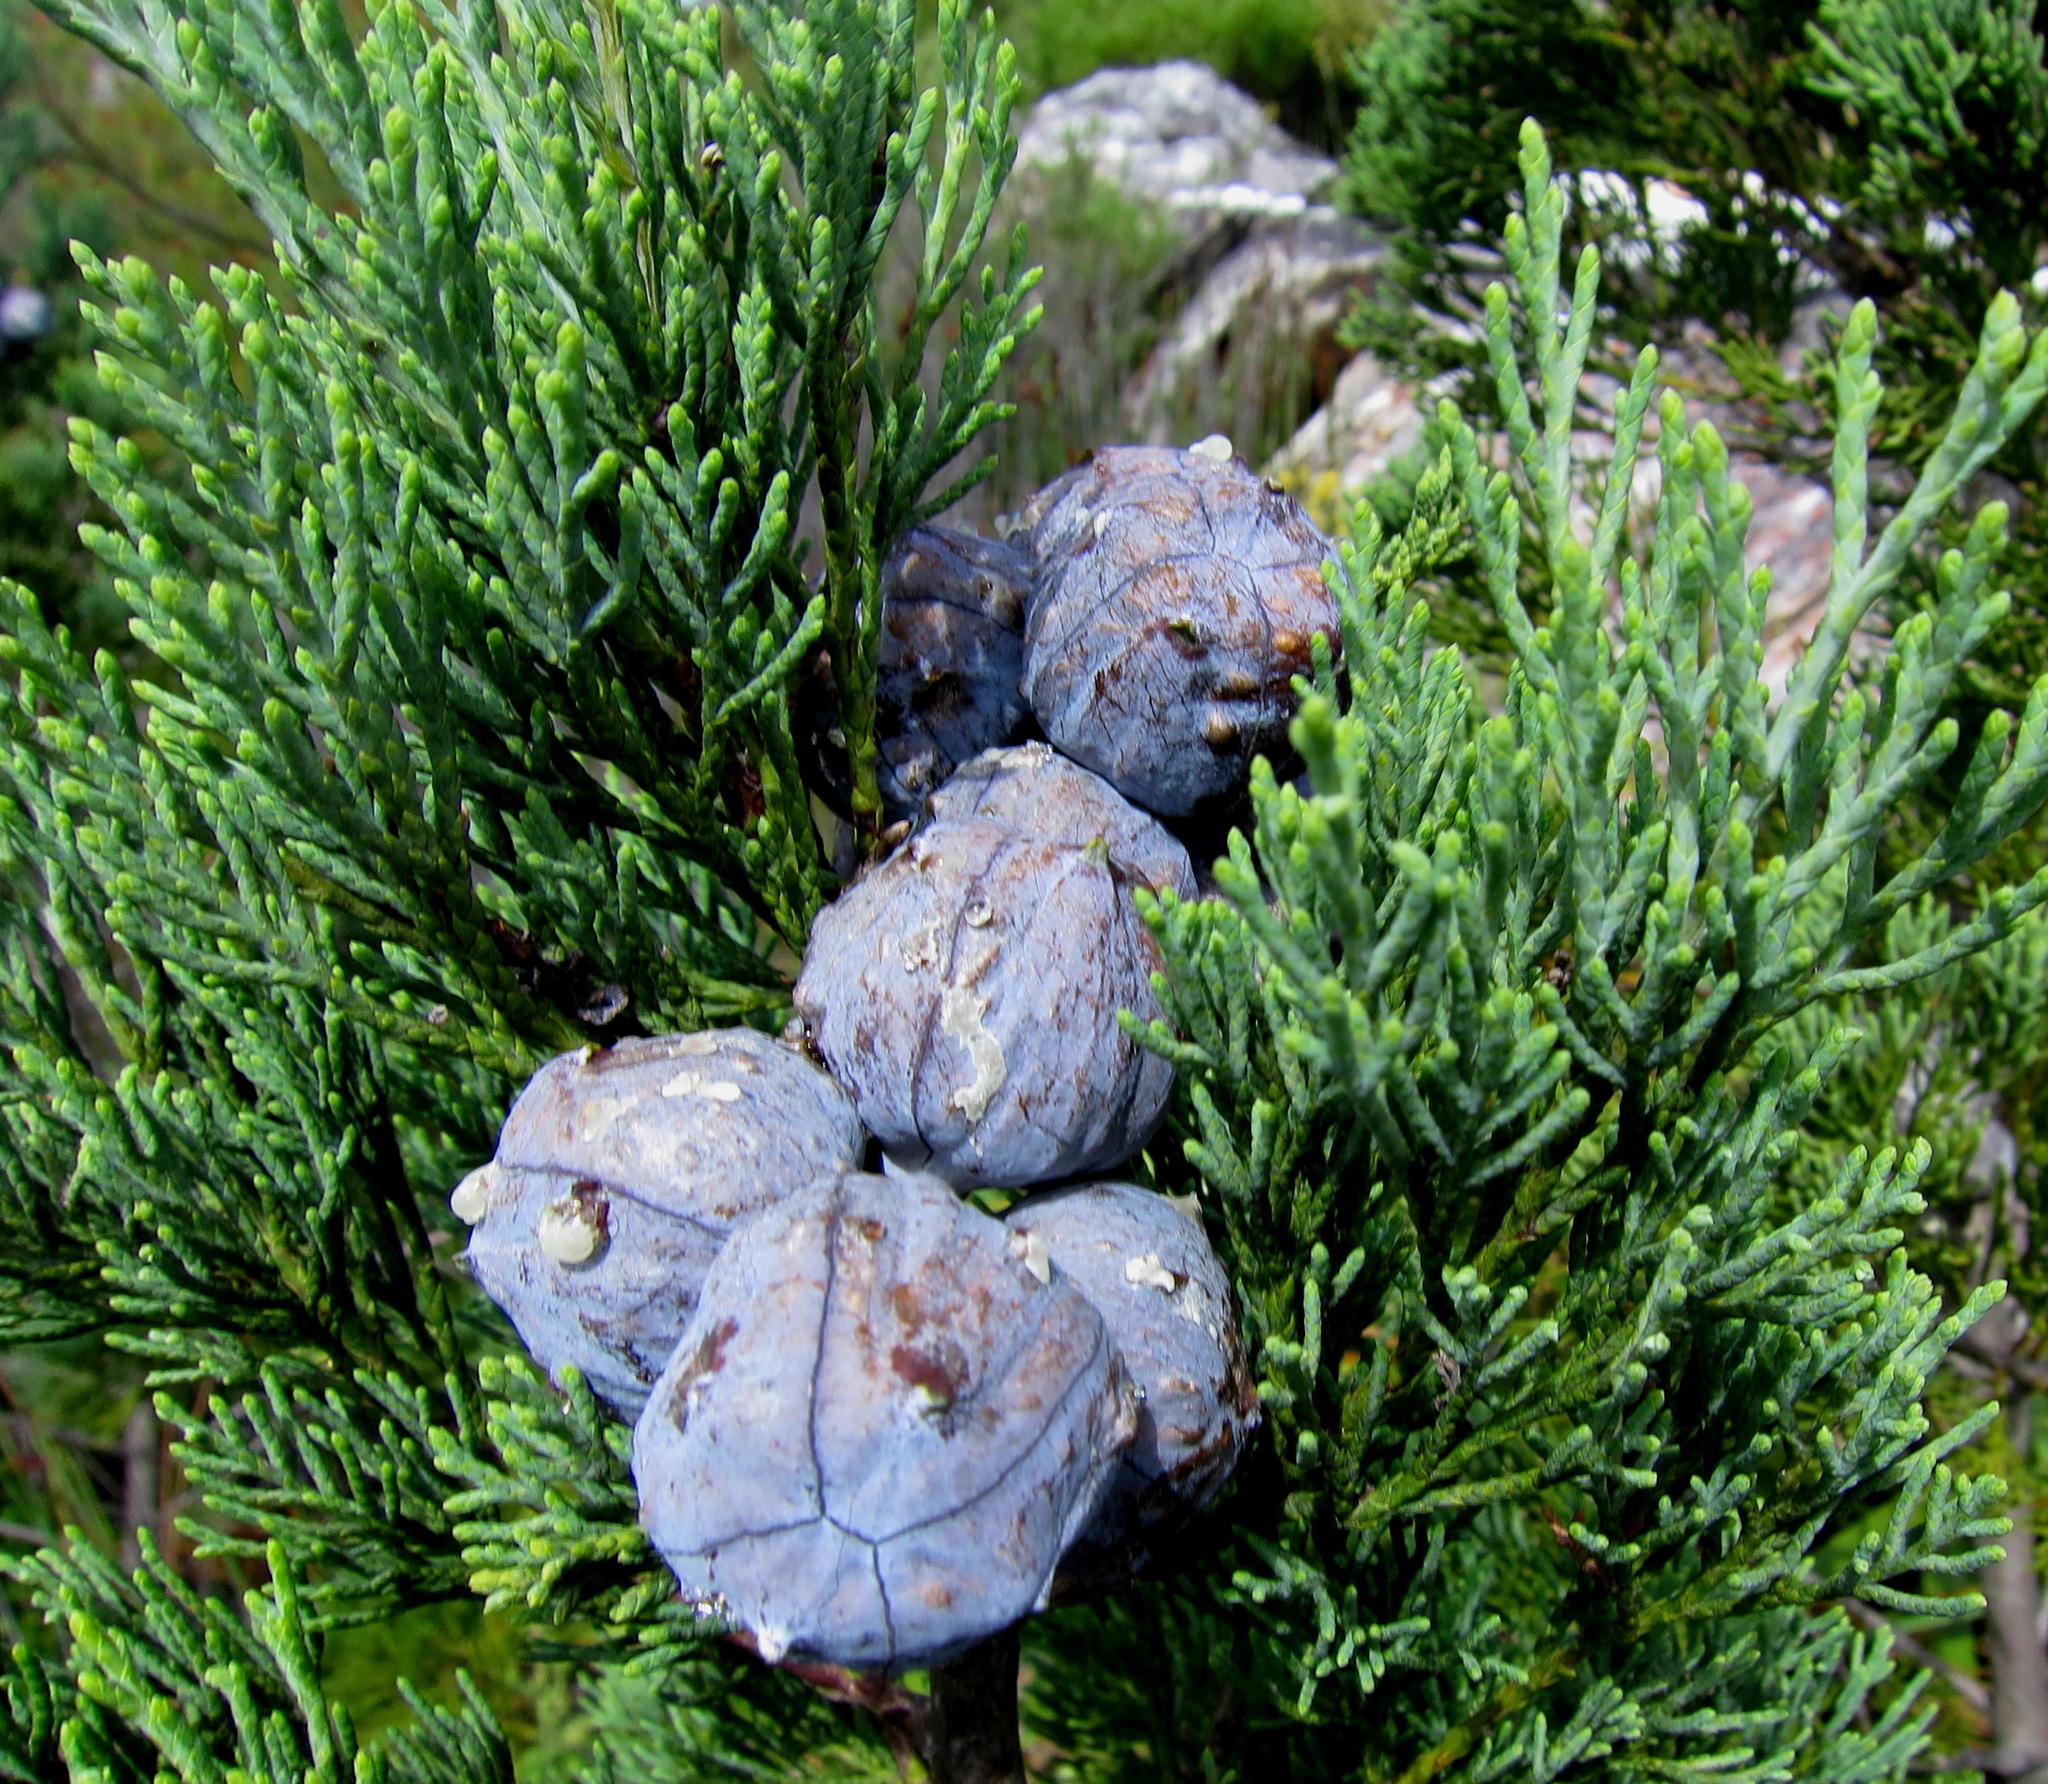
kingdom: Plantae
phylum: Tracheophyta
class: Pinopsida
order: Pinales
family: Cupressaceae
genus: Widdringtonia
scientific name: Widdringtonia nodiflora
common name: Cape cypress
